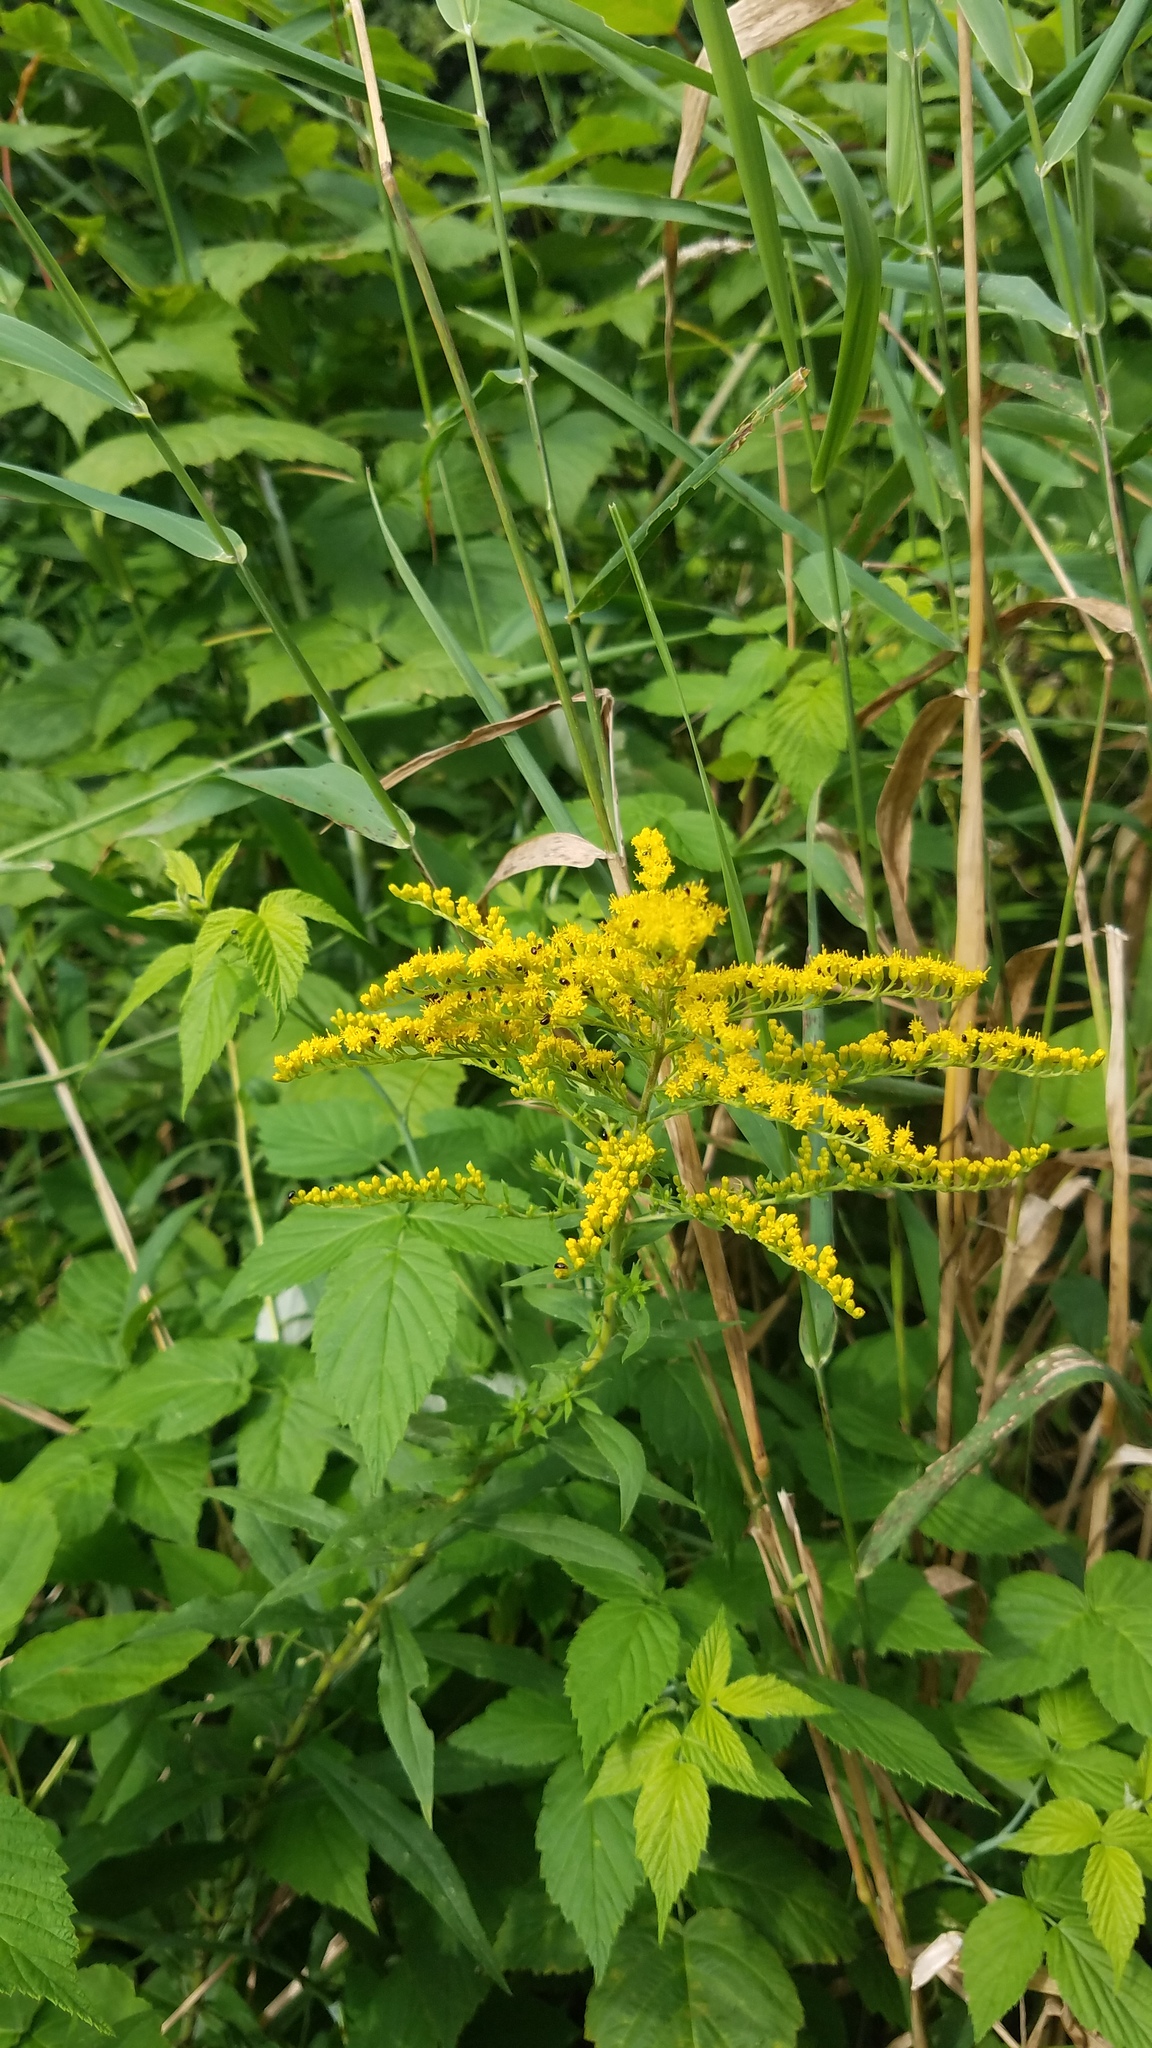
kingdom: Plantae
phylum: Tracheophyta
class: Magnoliopsida
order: Asterales
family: Asteraceae
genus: Solidago
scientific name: Solidago juncea
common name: Early goldenrod
